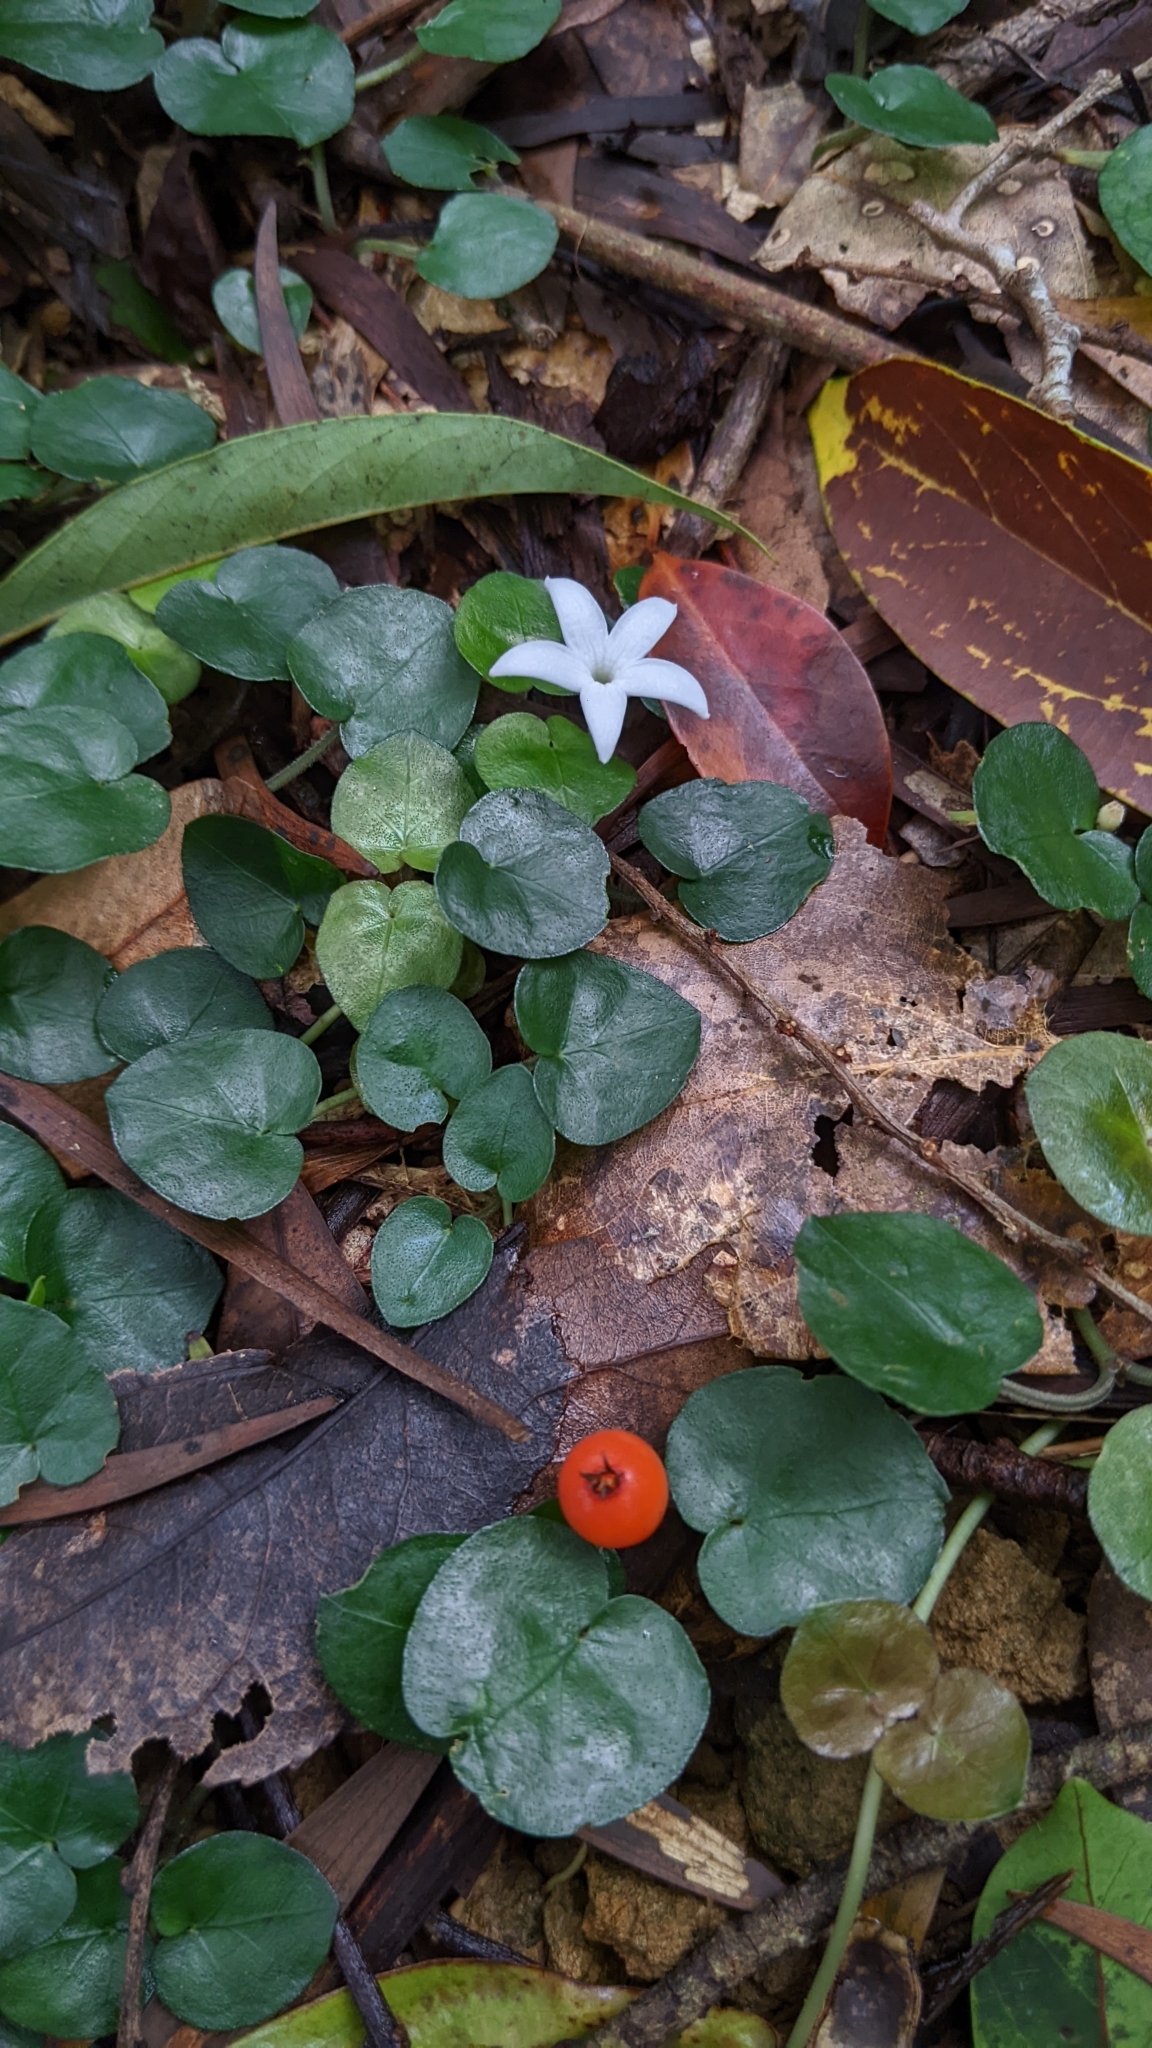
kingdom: Plantae
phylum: Tracheophyta
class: Magnoliopsida
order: Gentianales
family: Rubiaceae
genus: Geophila
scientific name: Geophila herbacea
